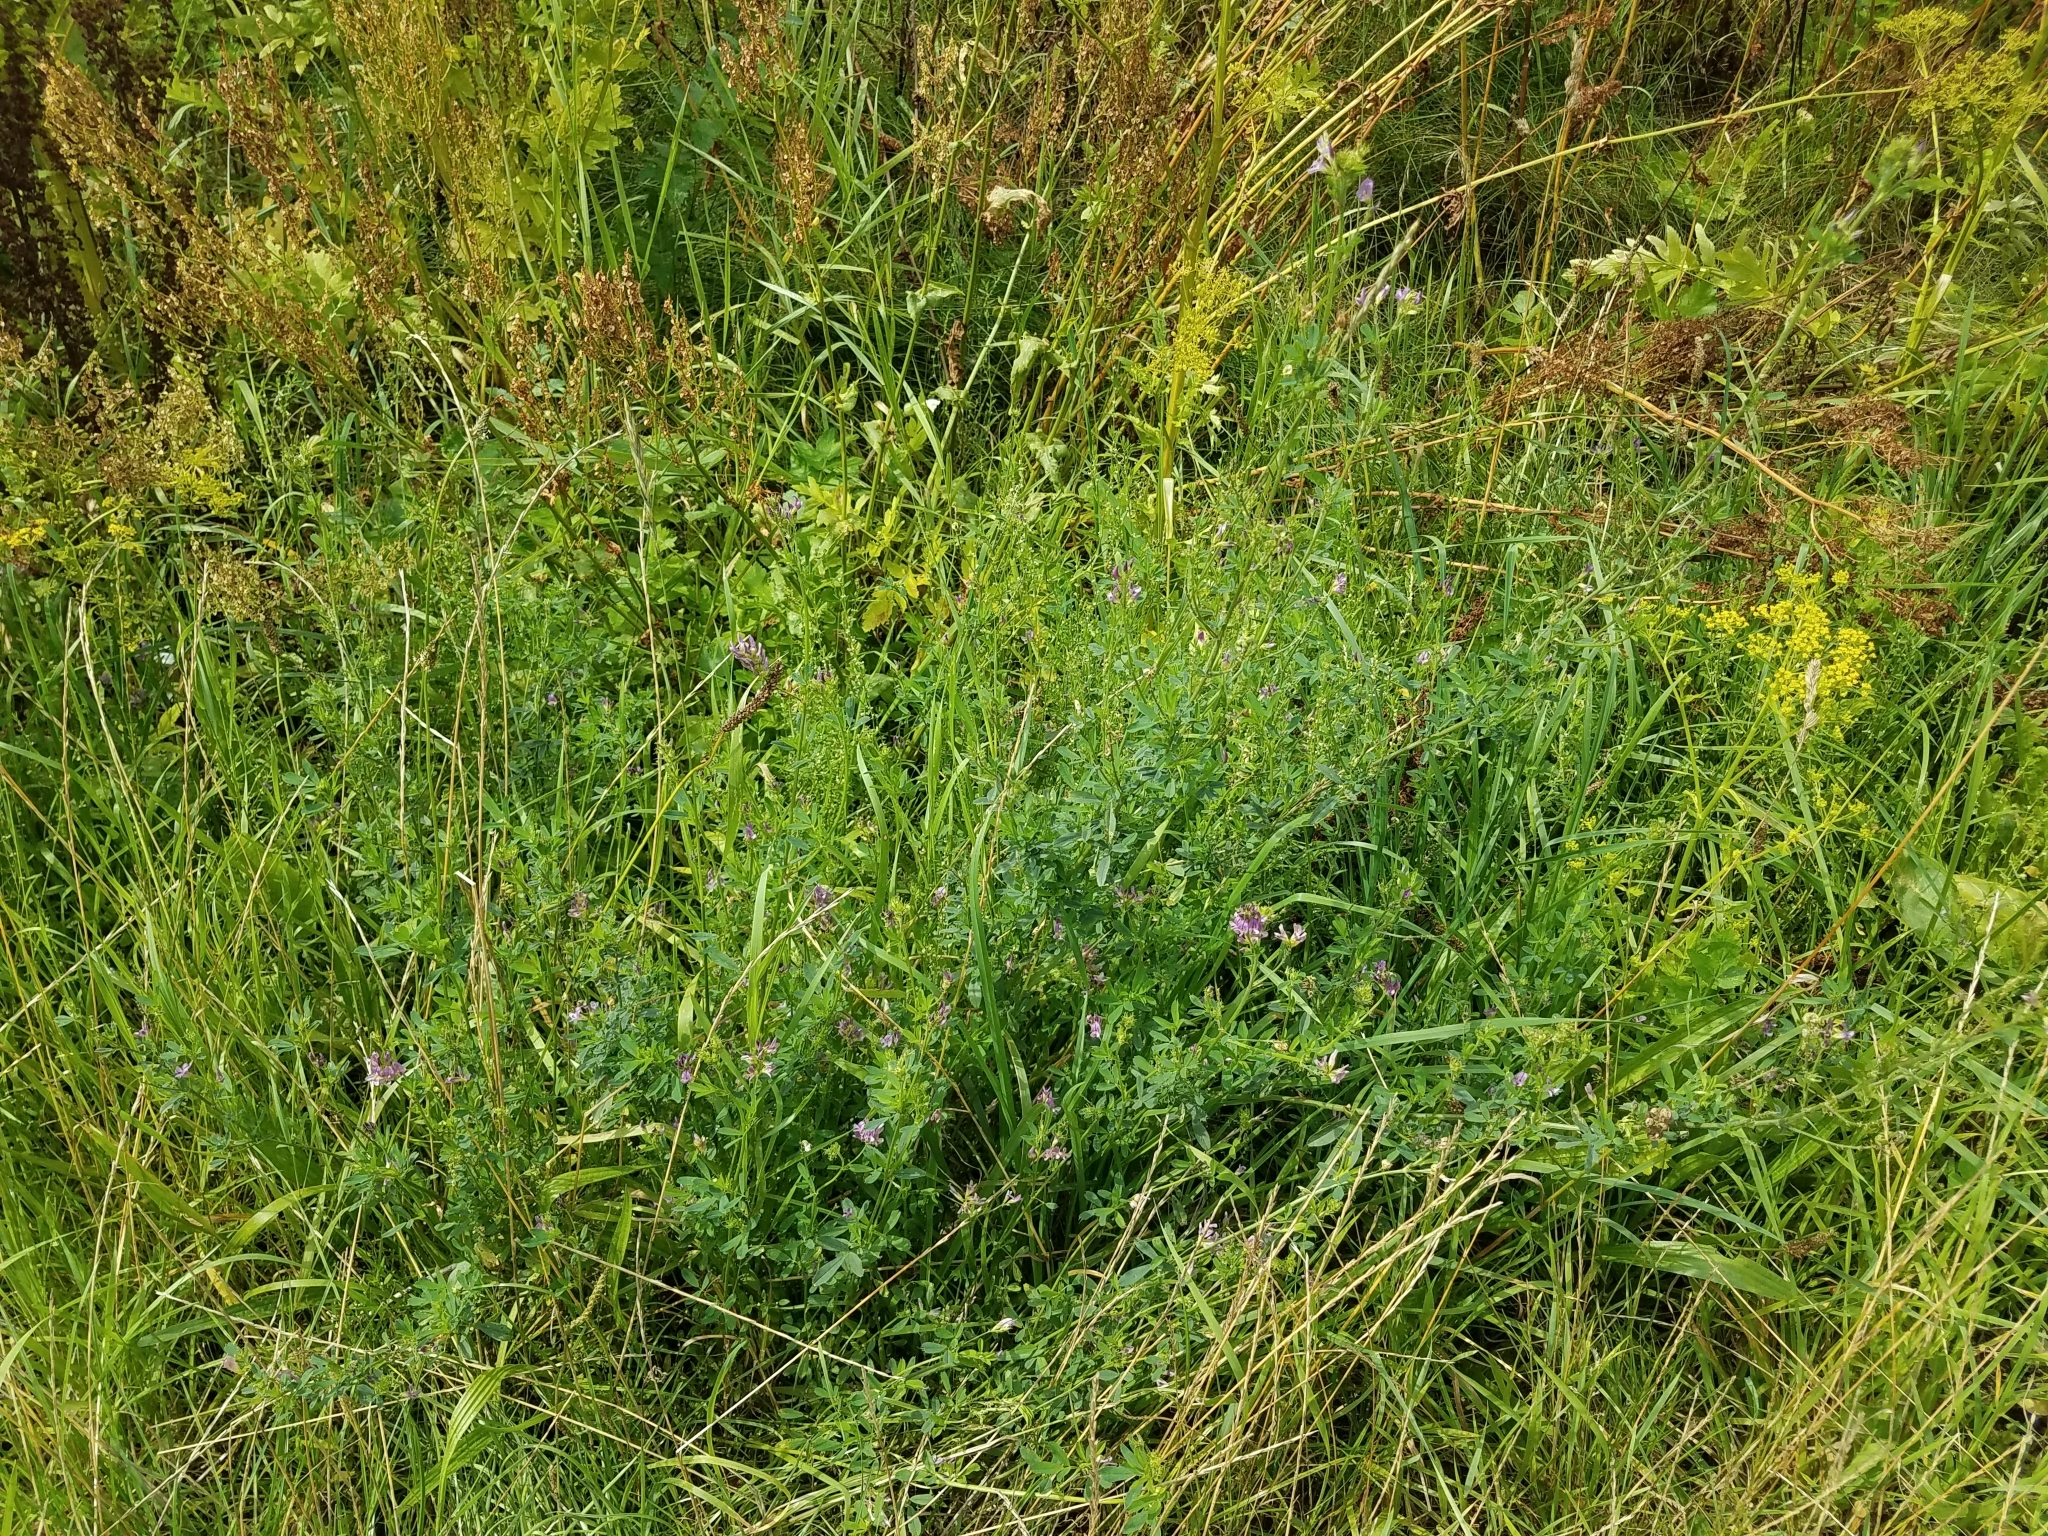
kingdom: Plantae
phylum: Tracheophyta
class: Magnoliopsida
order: Fabales
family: Fabaceae
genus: Medicago
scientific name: Medicago sativa
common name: Alfalfa
